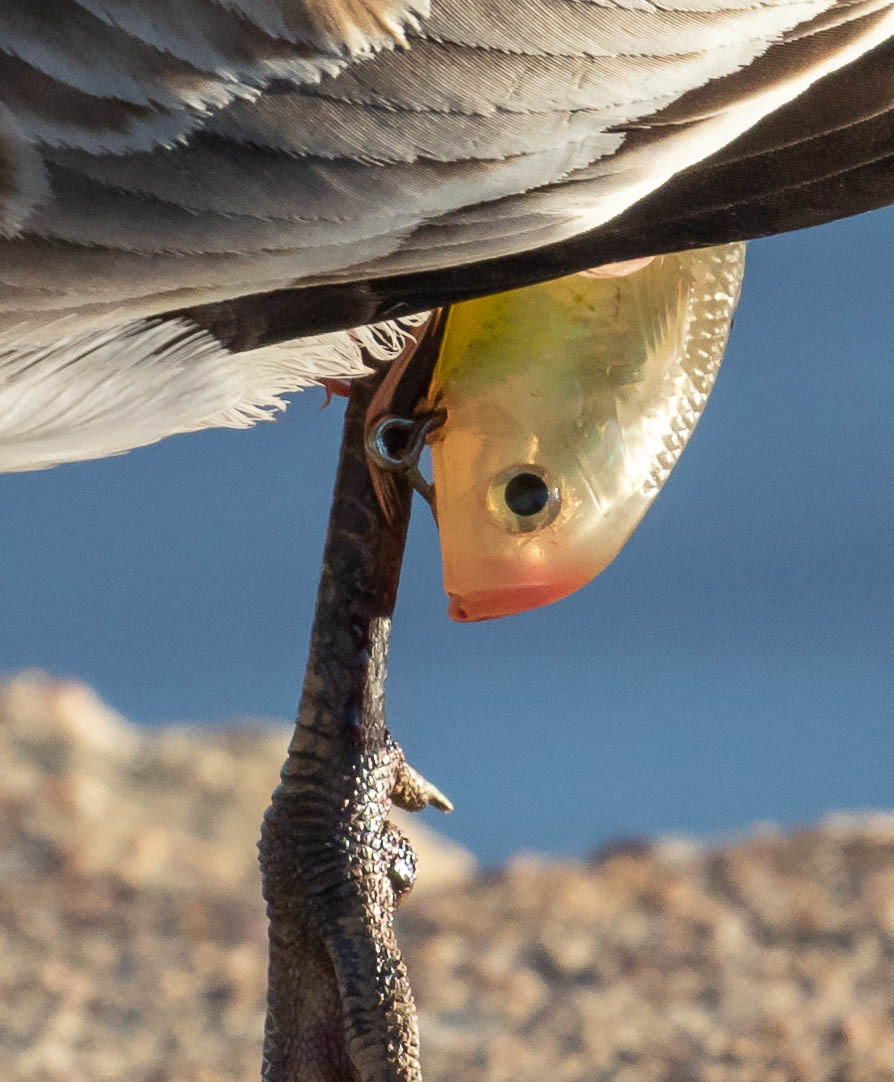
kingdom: Animalia
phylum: Chordata
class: Aves
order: Charadriiformes
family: Laridae
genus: Leucophaeus
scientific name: Leucophaeus atricilla
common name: Laughing gull
